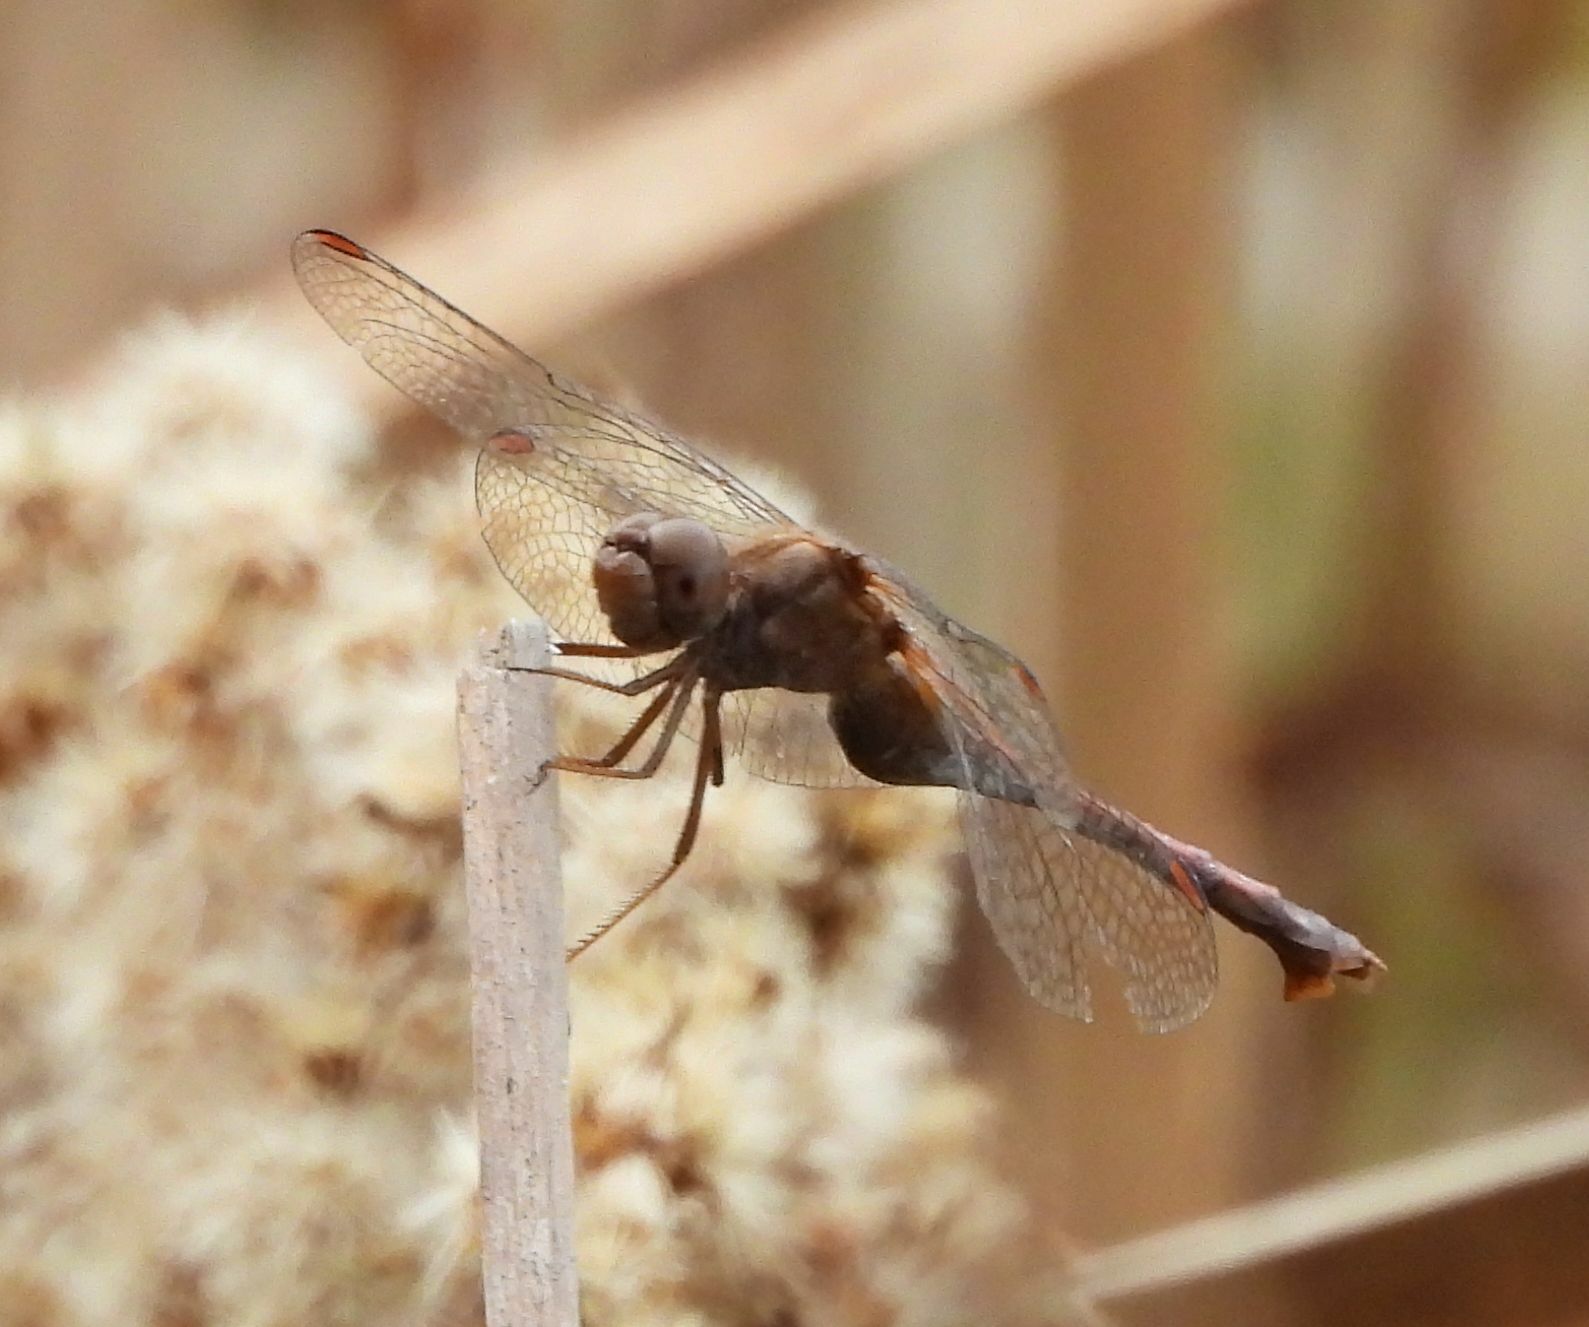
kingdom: Animalia
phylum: Arthropoda
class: Insecta
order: Odonata
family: Libellulidae
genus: Sympetrum
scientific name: Sympetrum vicinum
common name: Autumn meadowhawk
